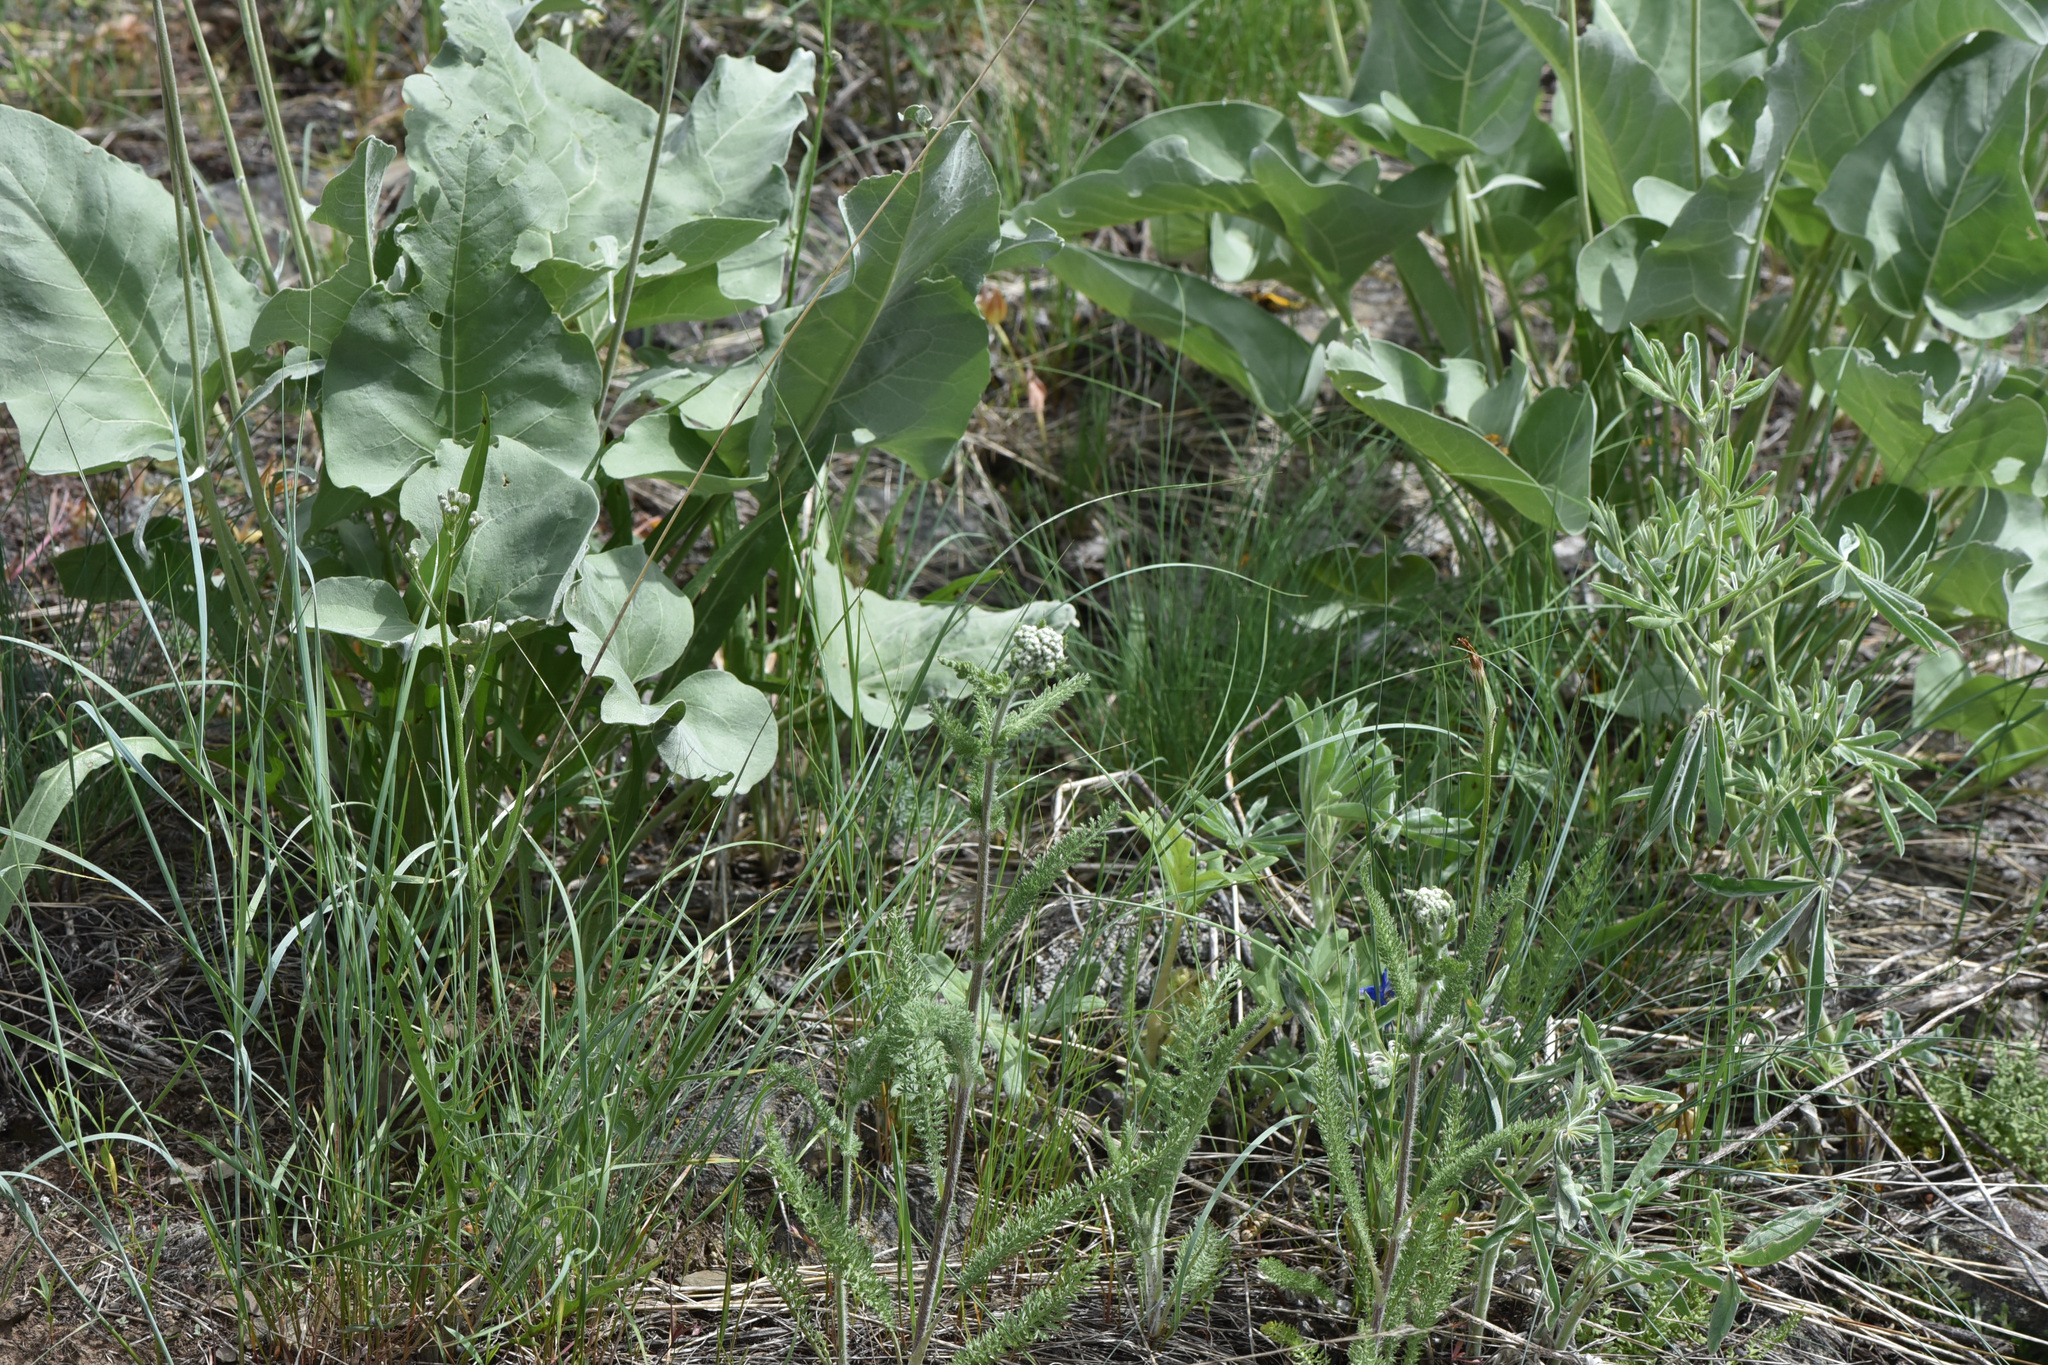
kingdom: Plantae
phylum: Tracheophyta
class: Magnoliopsida
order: Asterales
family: Asteraceae
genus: Wyethia
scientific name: Wyethia sagittata
